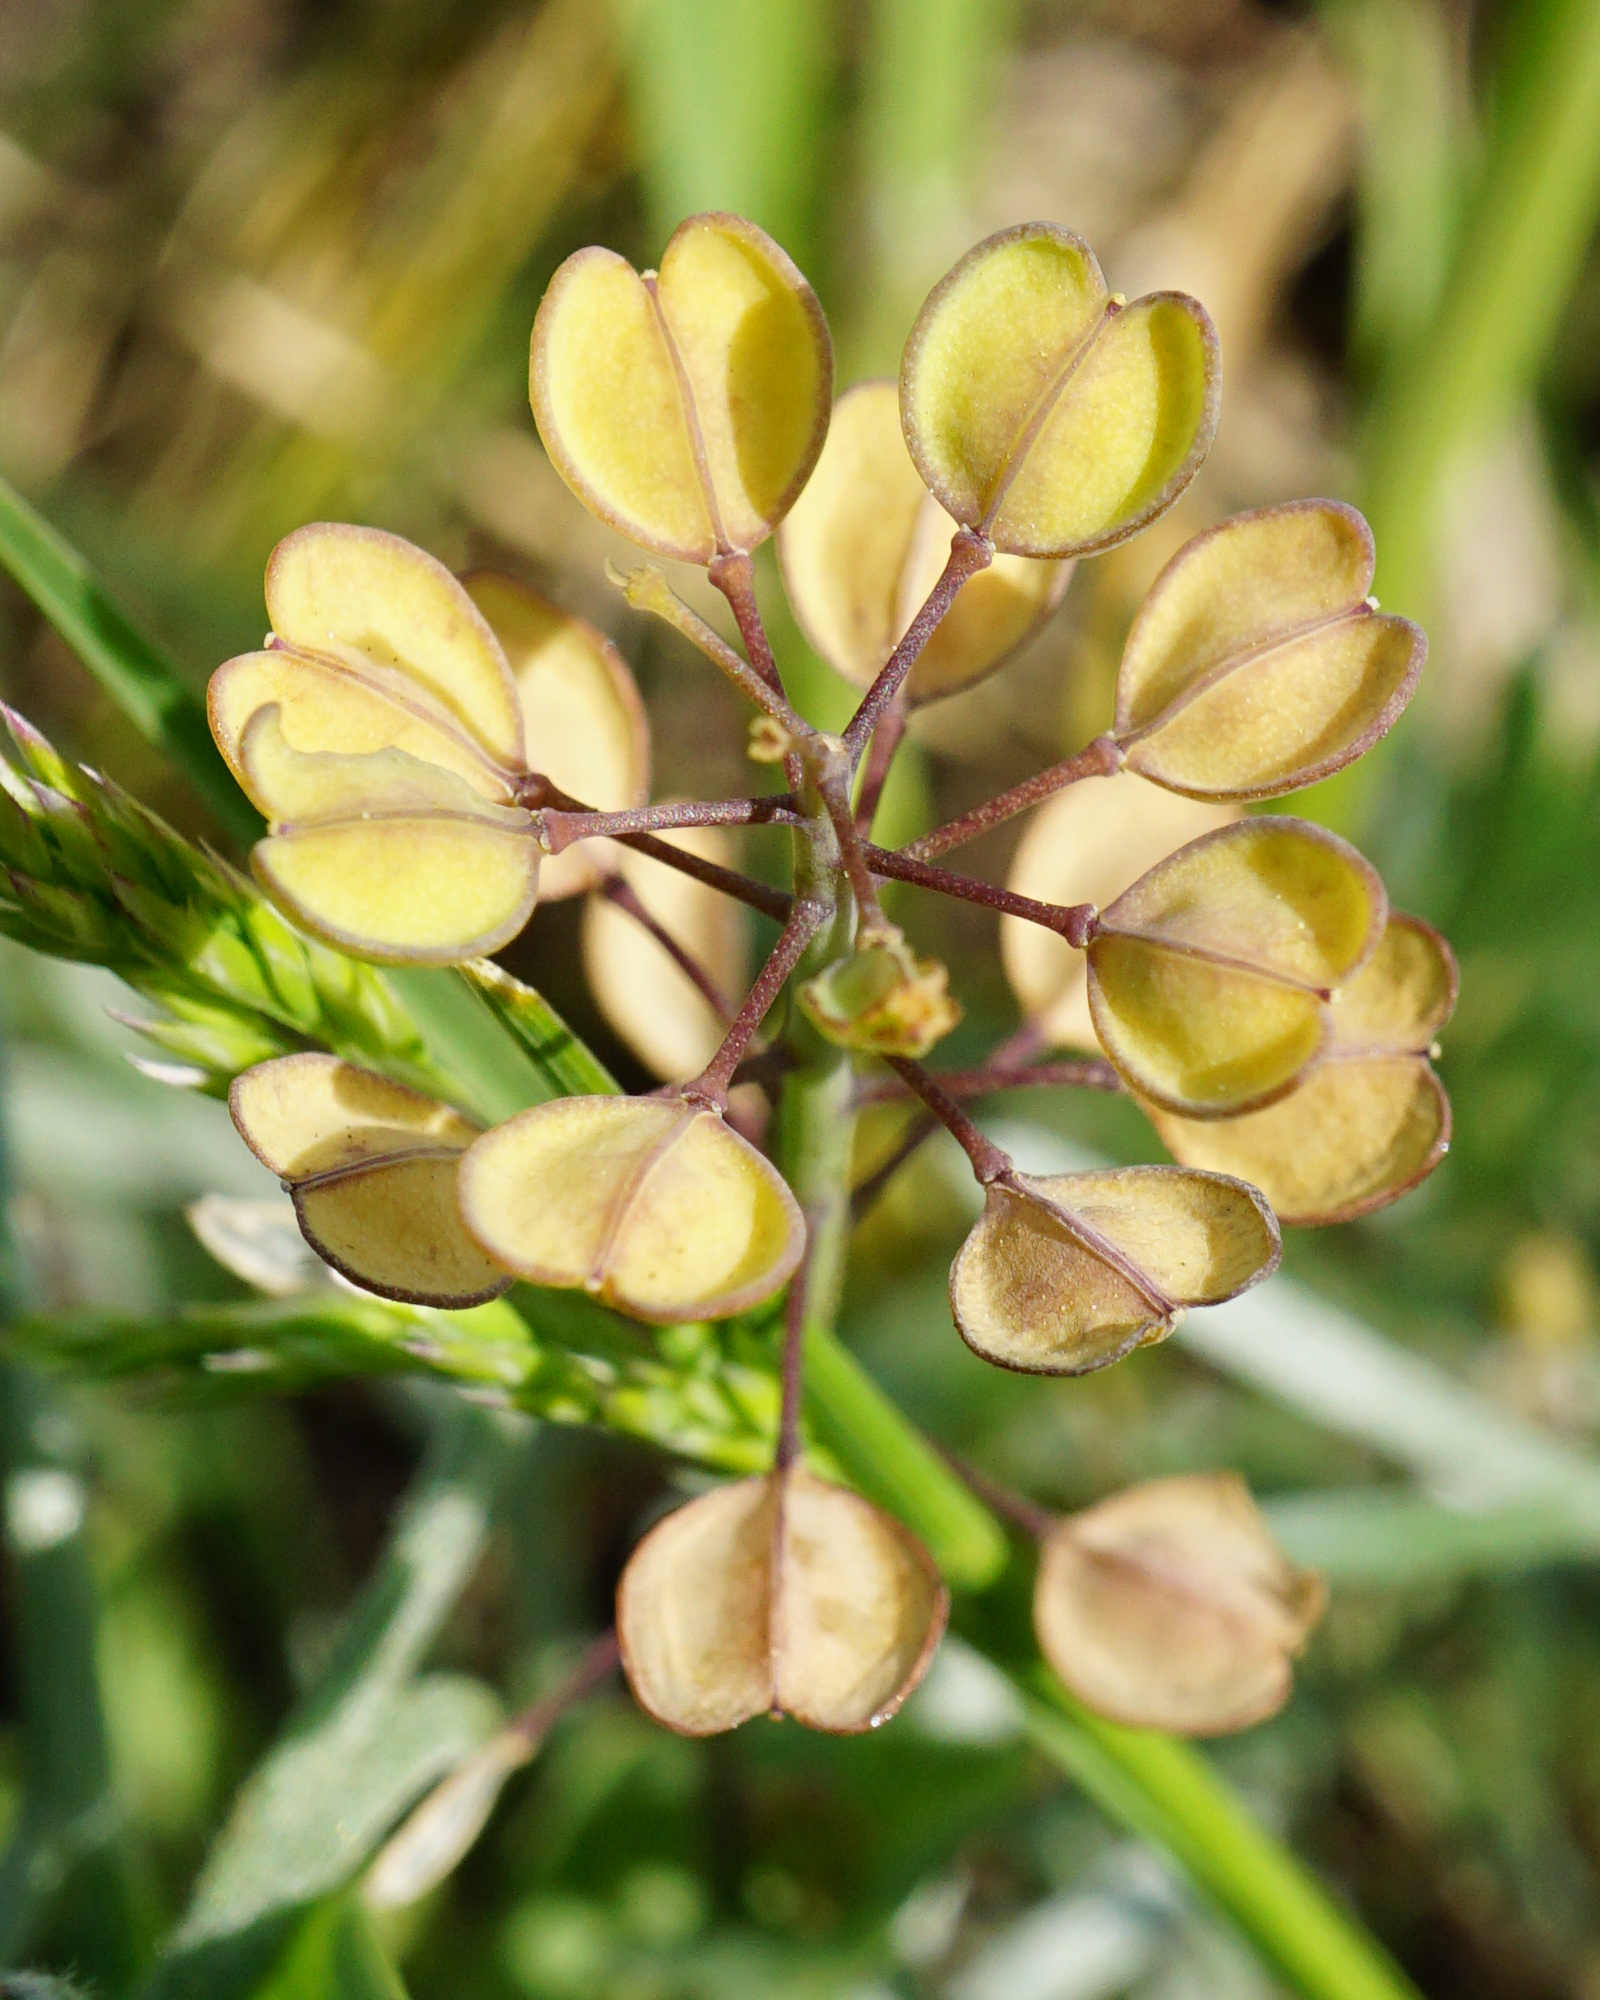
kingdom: Plantae
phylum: Tracheophyta
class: Magnoliopsida
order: Brassicales
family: Brassicaceae
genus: Noccaea
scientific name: Noccaea perfoliata
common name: Perfoliate pennycress
